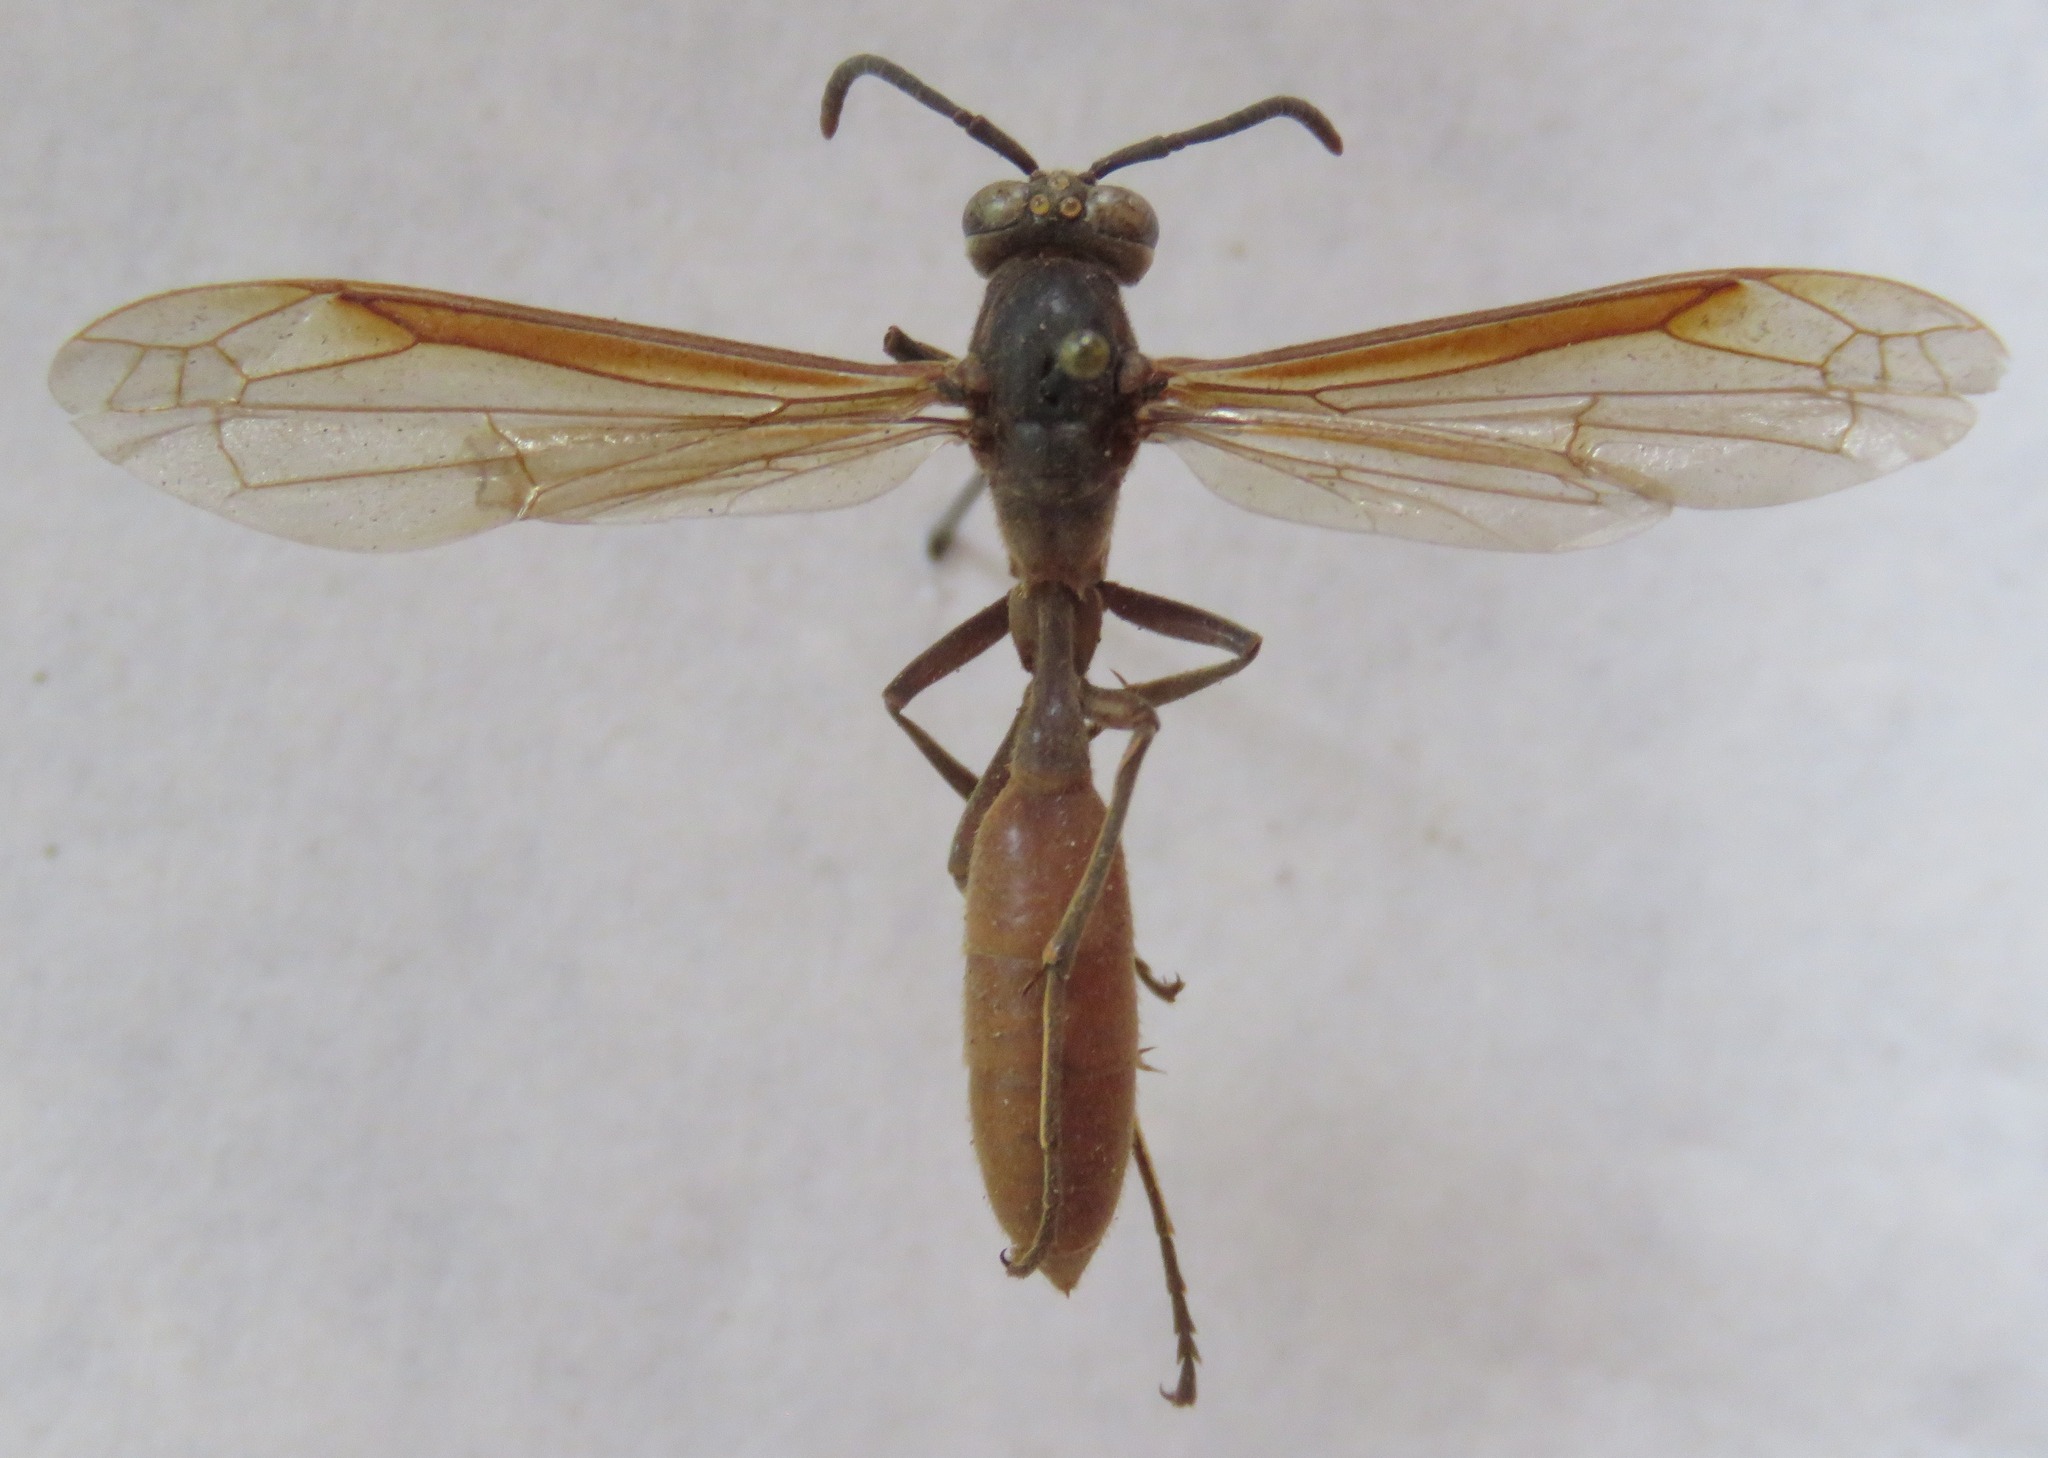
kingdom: Animalia
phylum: Arthropoda
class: Insecta
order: Hymenoptera
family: Vespidae
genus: Apoica
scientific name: Apoica thoracica
